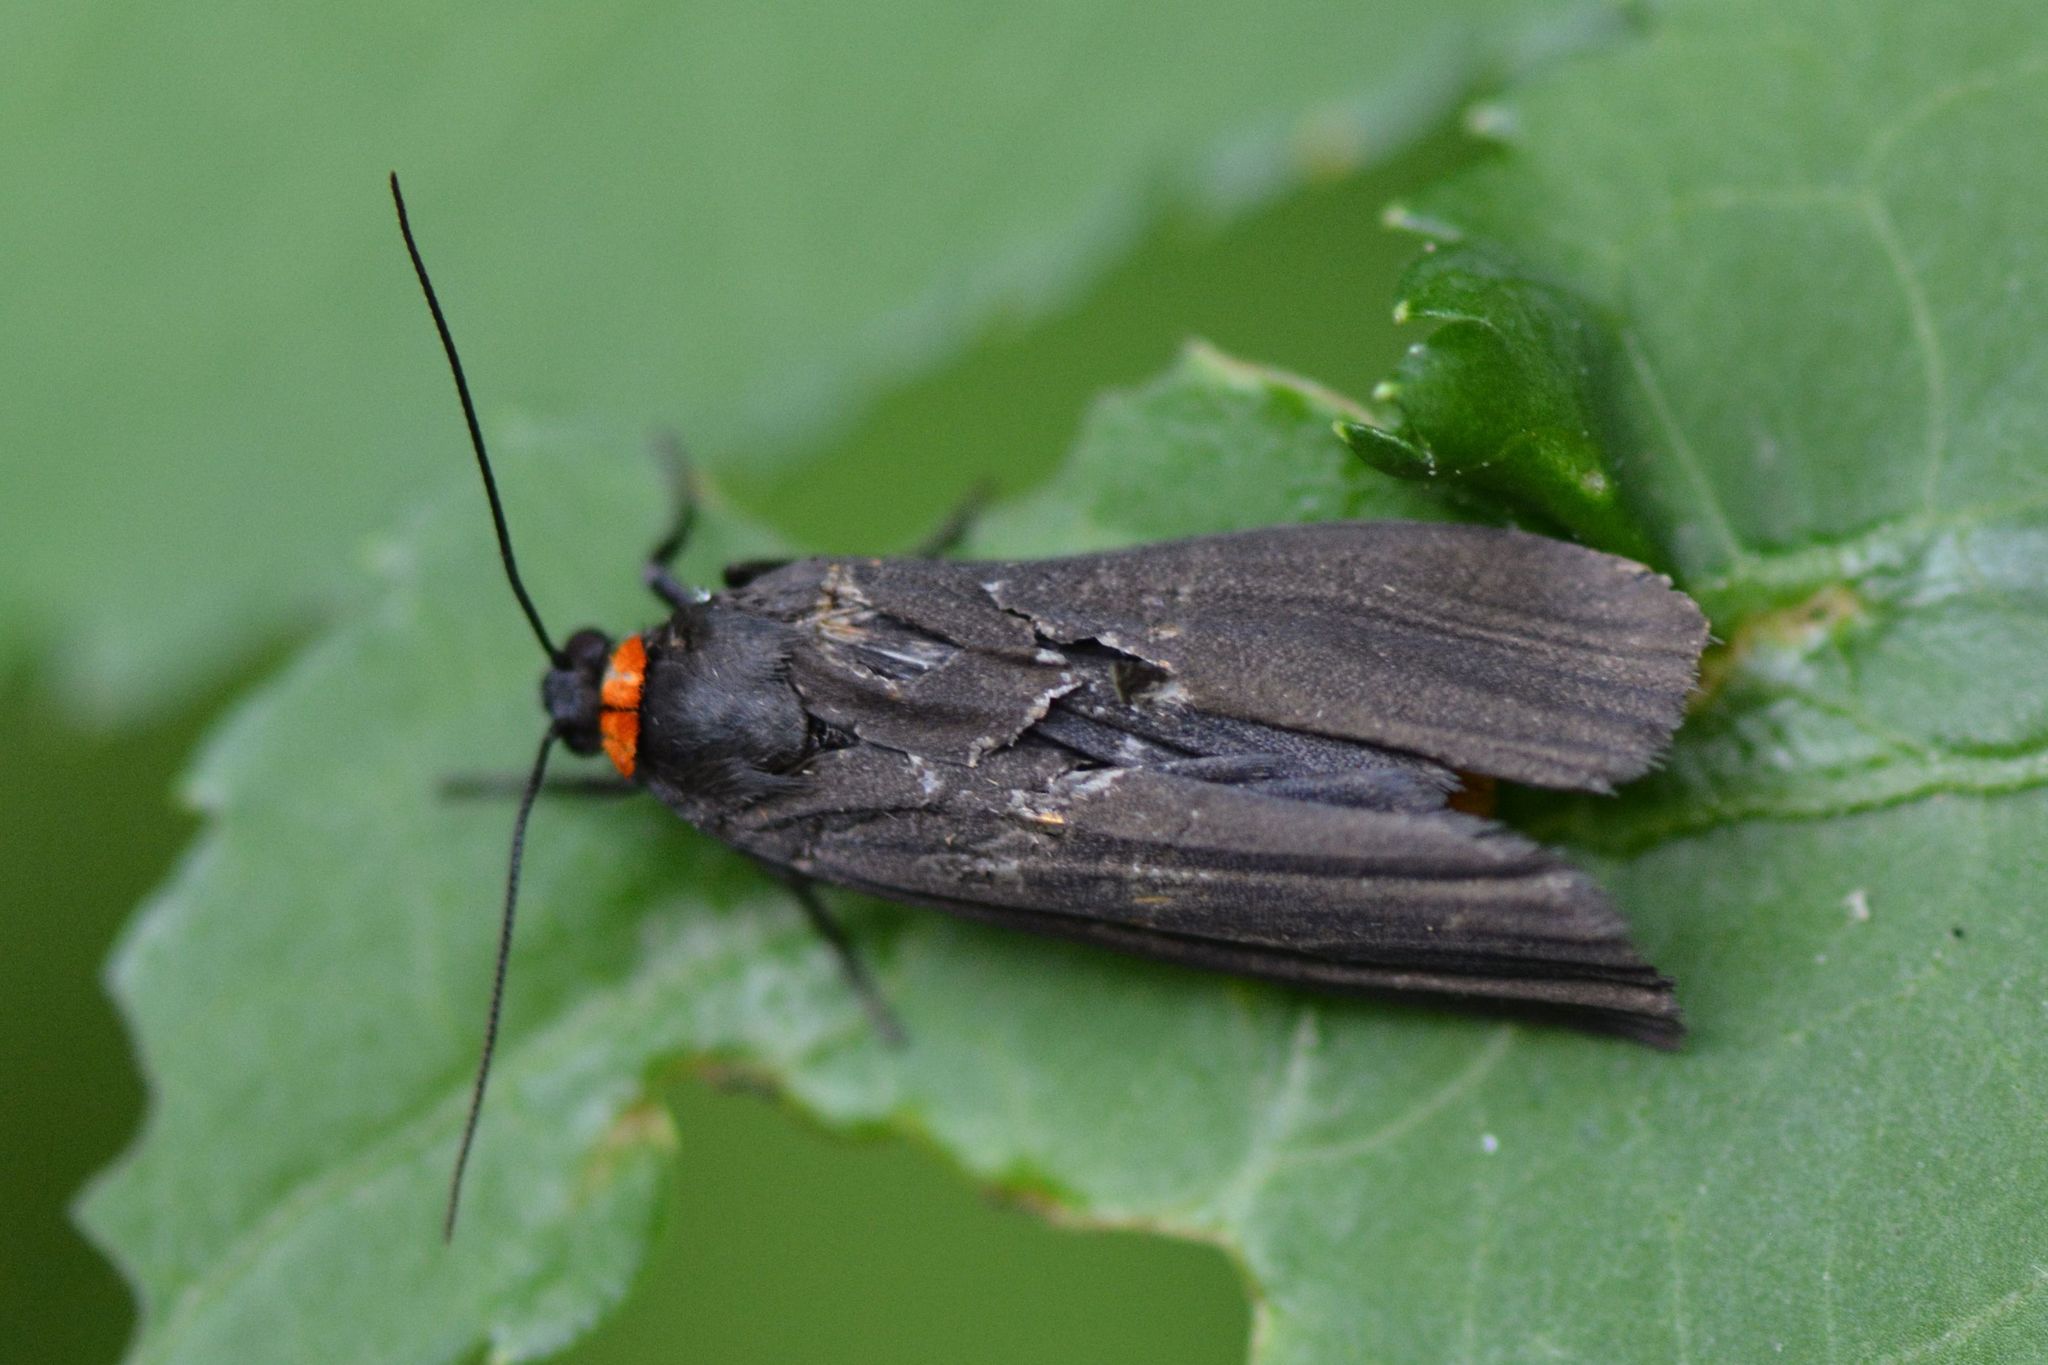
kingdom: Animalia
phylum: Arthropoda
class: Insecta
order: Lepidoptera
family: Erebidae
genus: Atolmis
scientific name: Atolmis rubricollis
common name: Red-necked footman
